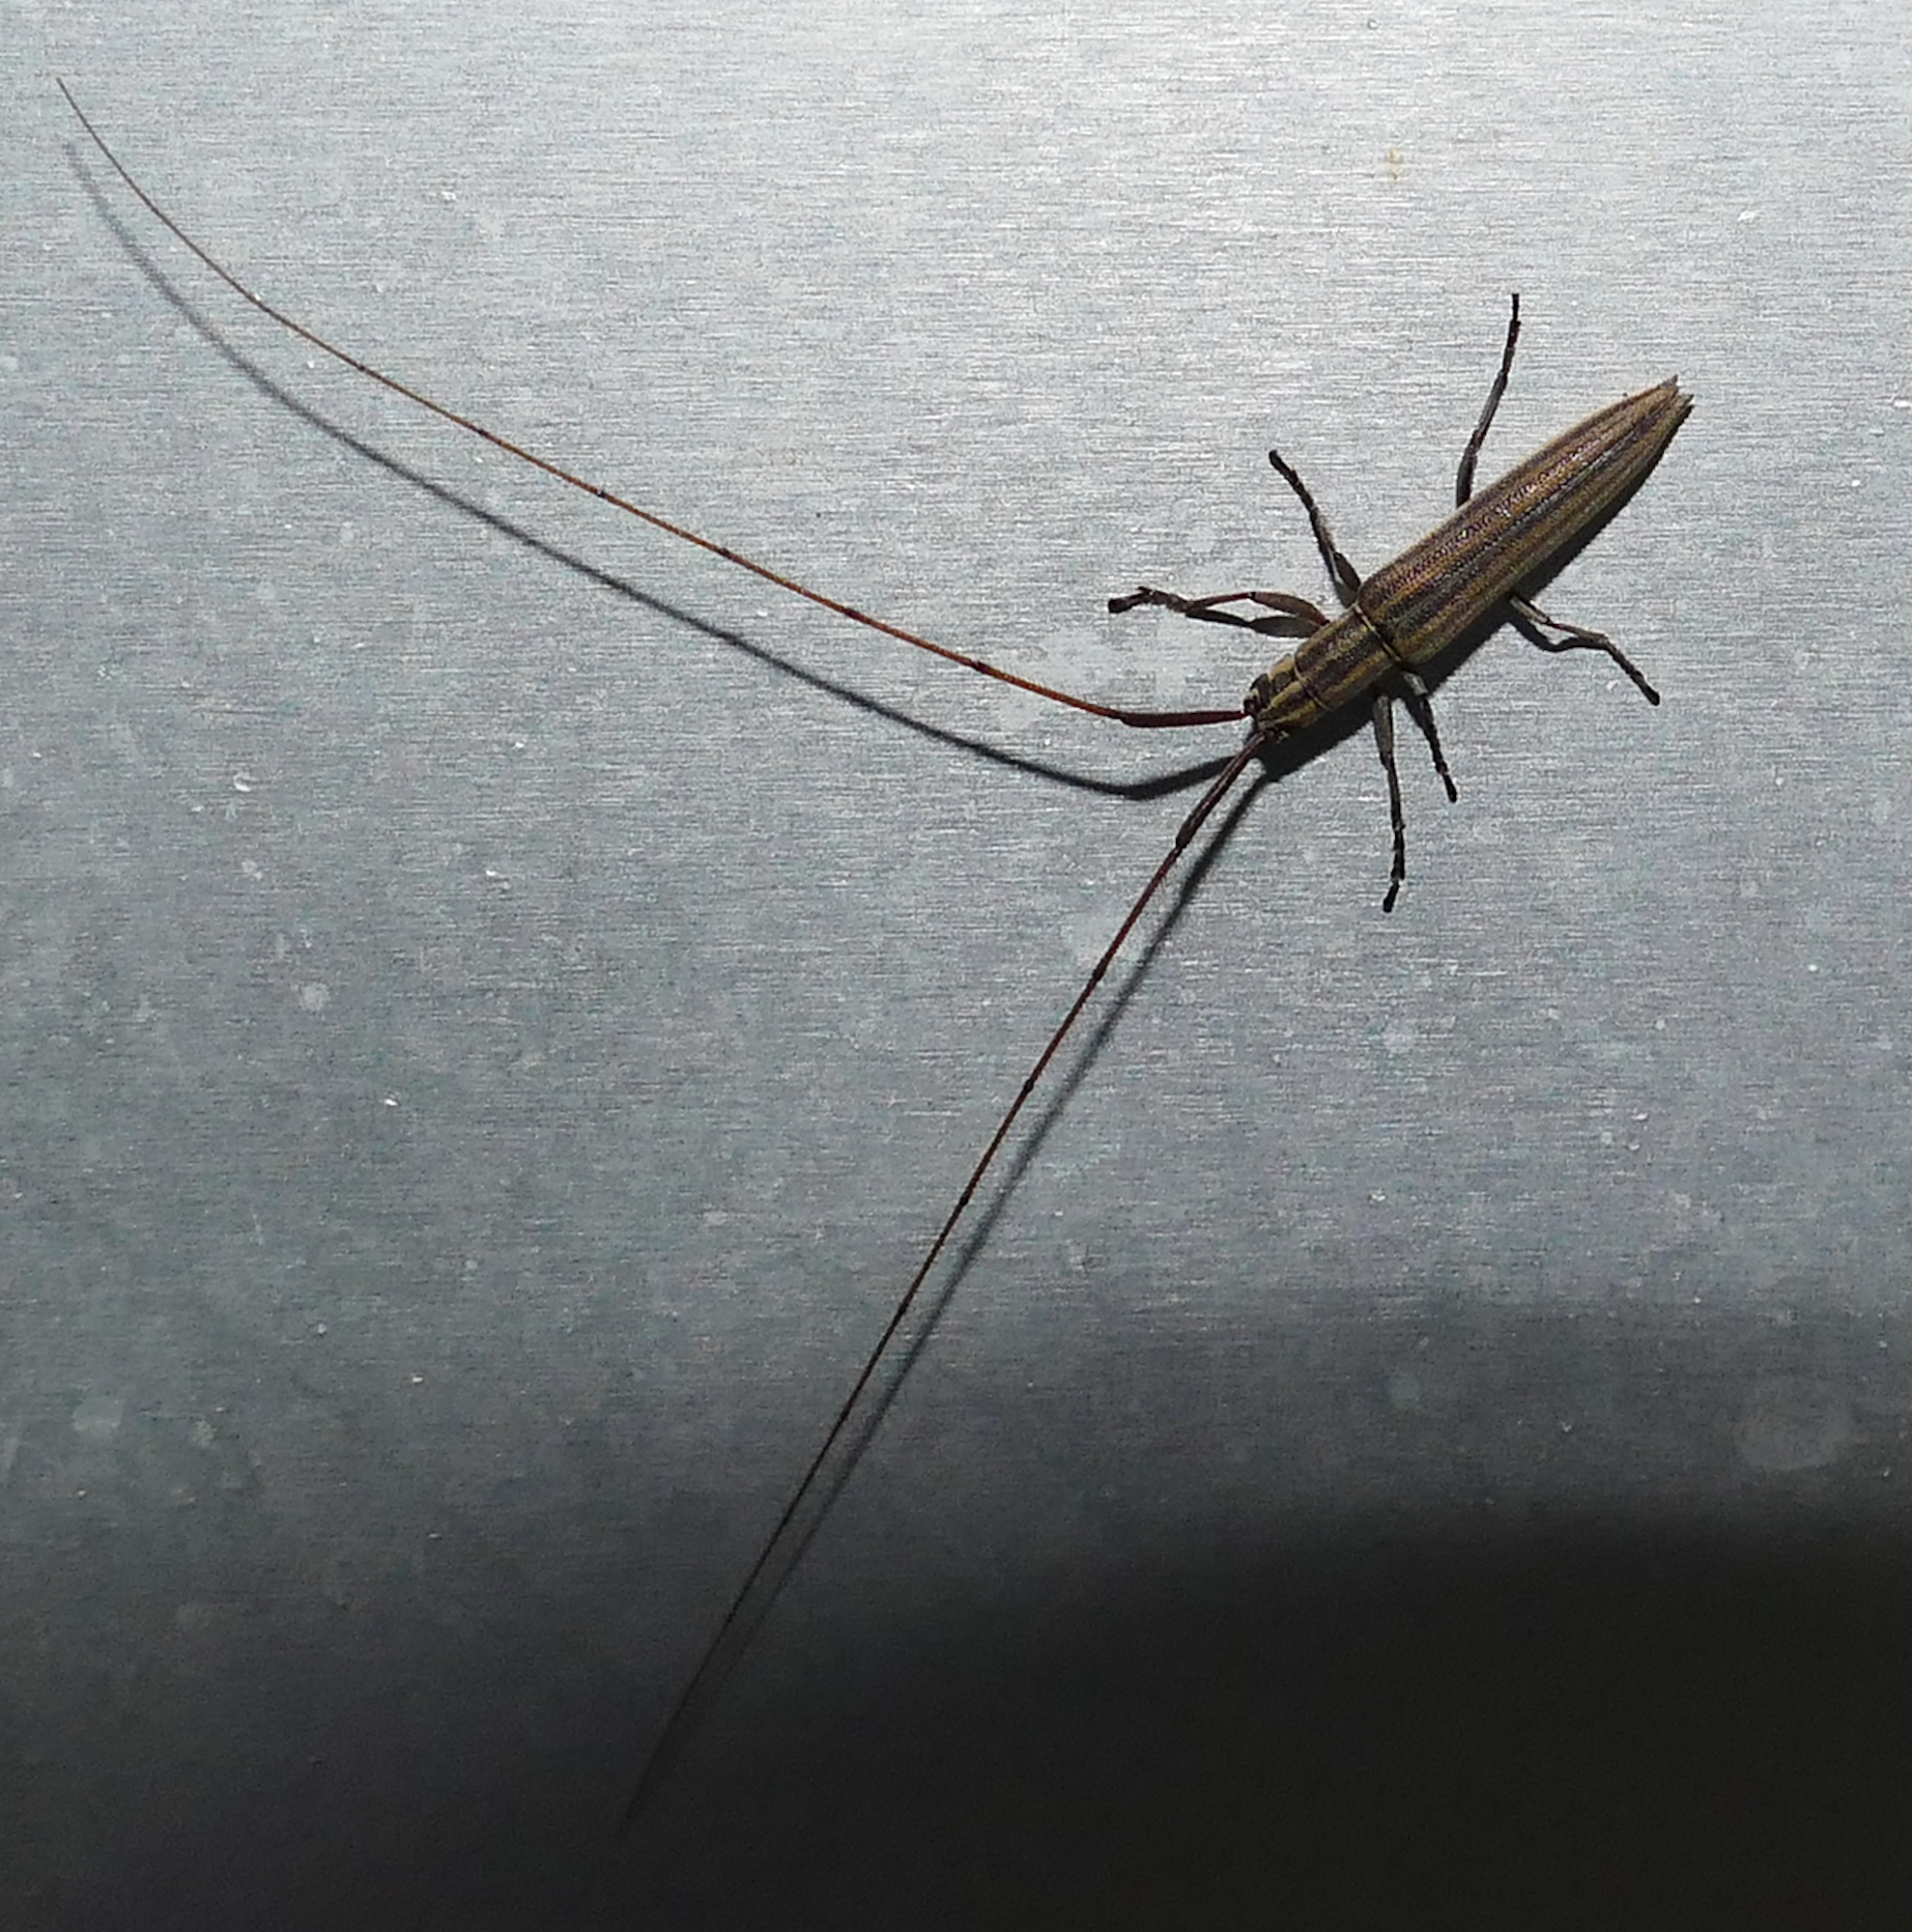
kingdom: Animalia
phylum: Arthropoda
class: Insecta
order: Coleoptera
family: Cerambycidae
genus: Hippopsis
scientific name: Hippopsis
